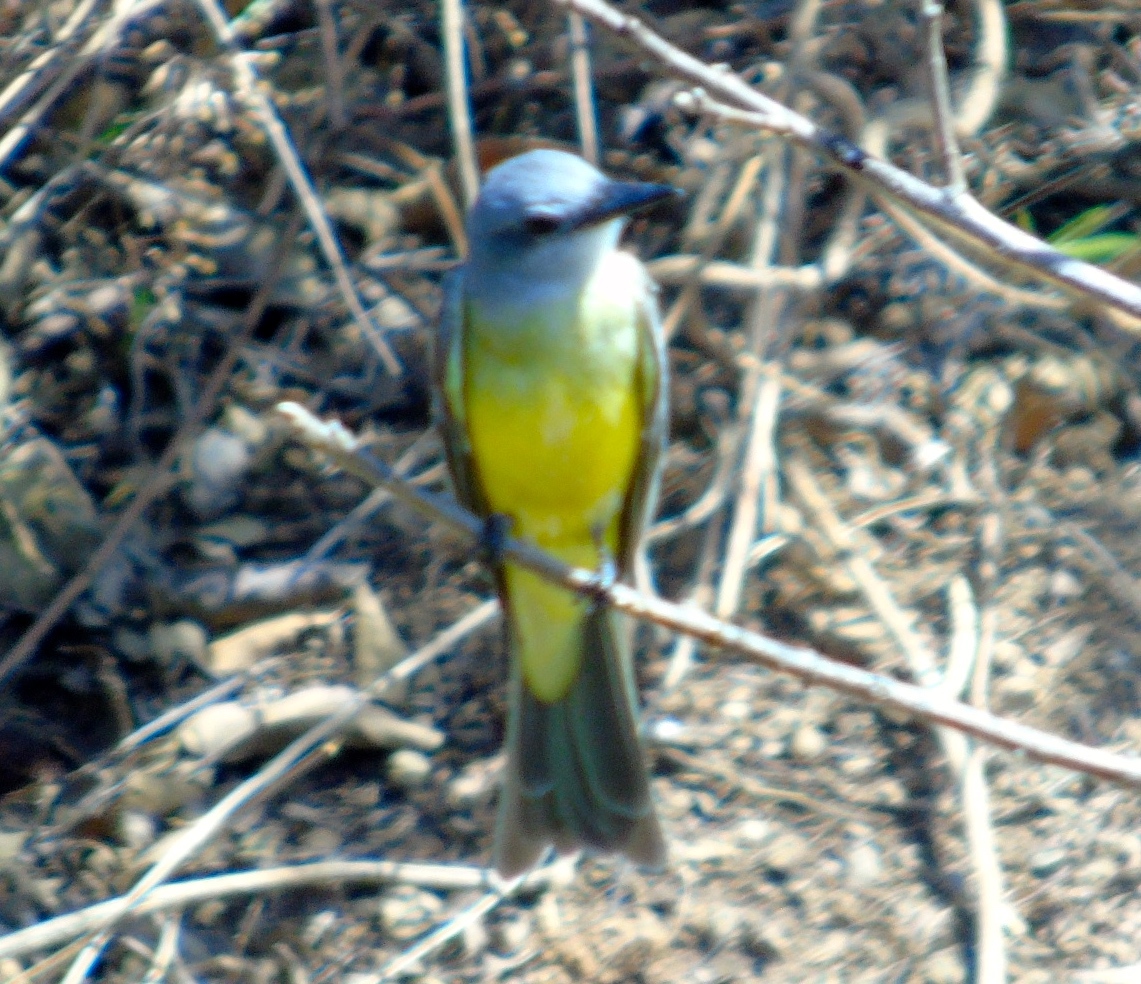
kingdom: Animalia
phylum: Chordata
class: Aves
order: Passeriformes
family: Tyrannidae
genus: Tyrannus
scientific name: Tyrannus melancholicus
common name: Tropical kingbird
